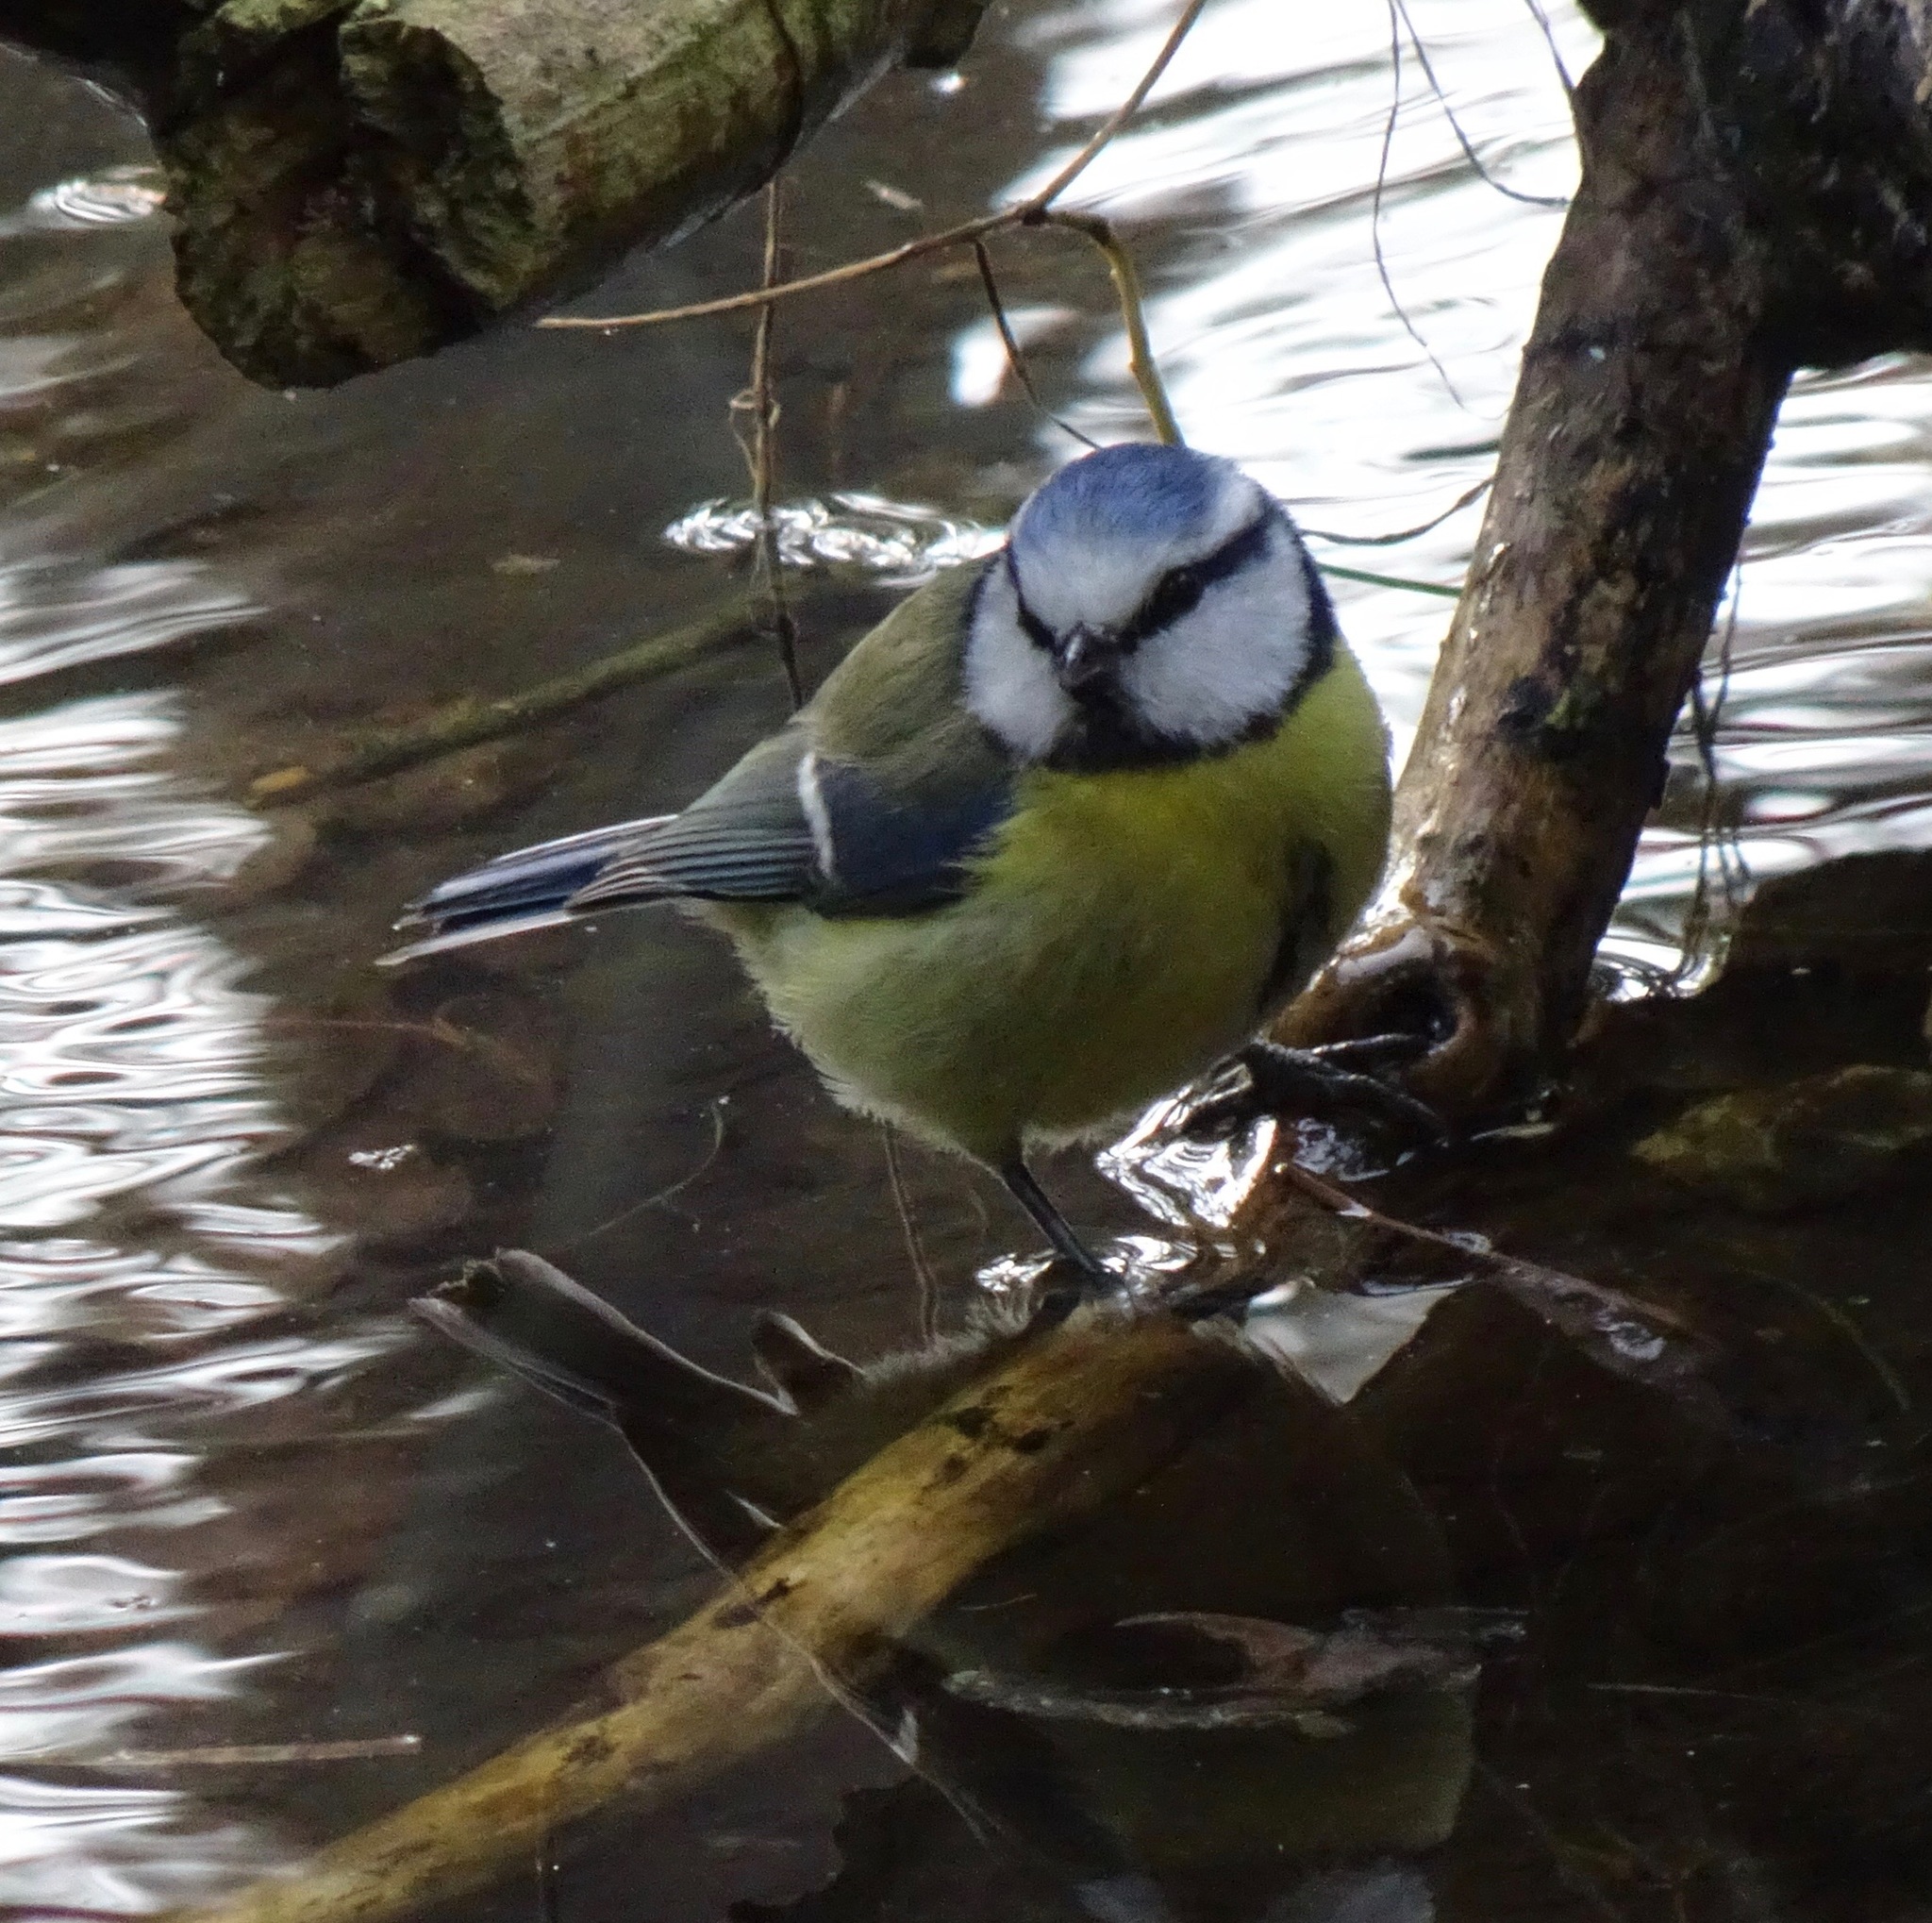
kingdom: Animalia
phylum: Chordata
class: Aves
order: Passeriformes
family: Paridae
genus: Cyanistes
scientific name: Cyanistes caeruleus
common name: Eurasian blue tit
